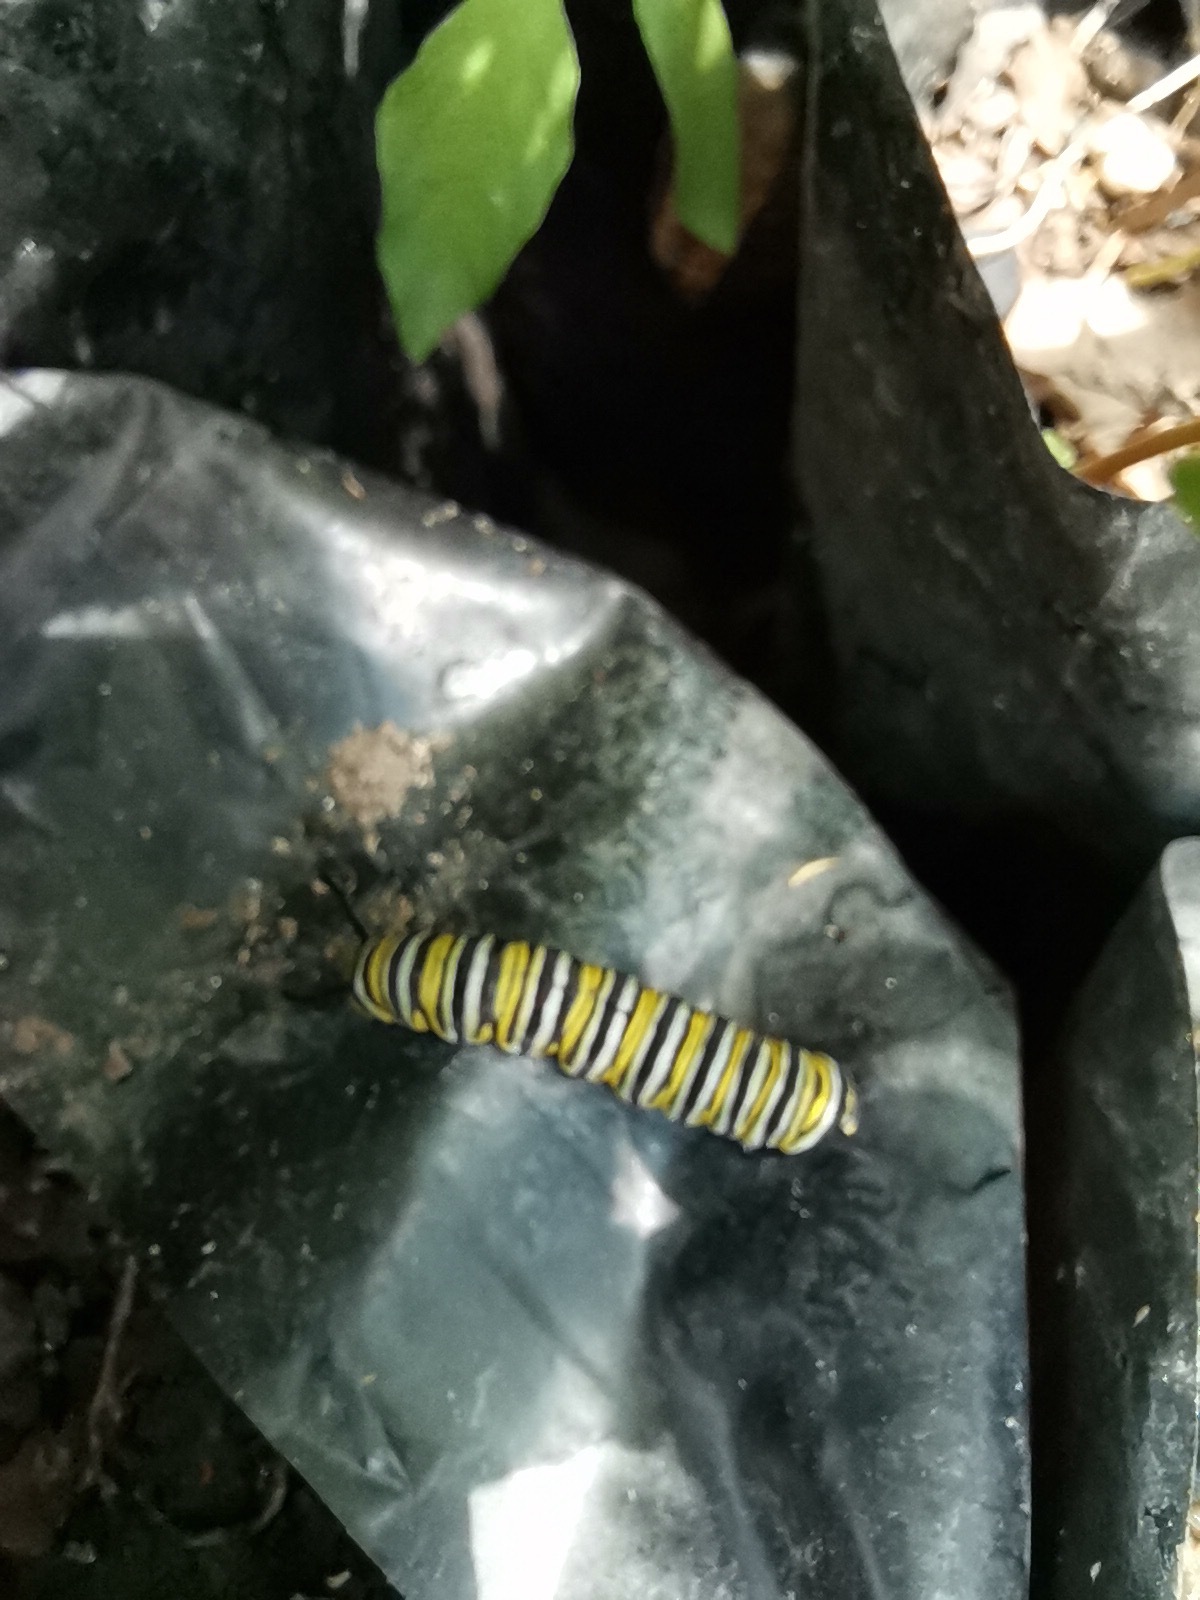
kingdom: Animalia
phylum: Arthropoda
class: Insecta
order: Lepidoptera
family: Nymphalidae
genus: Danaus
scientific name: Danaus plexippus
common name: Monarch
